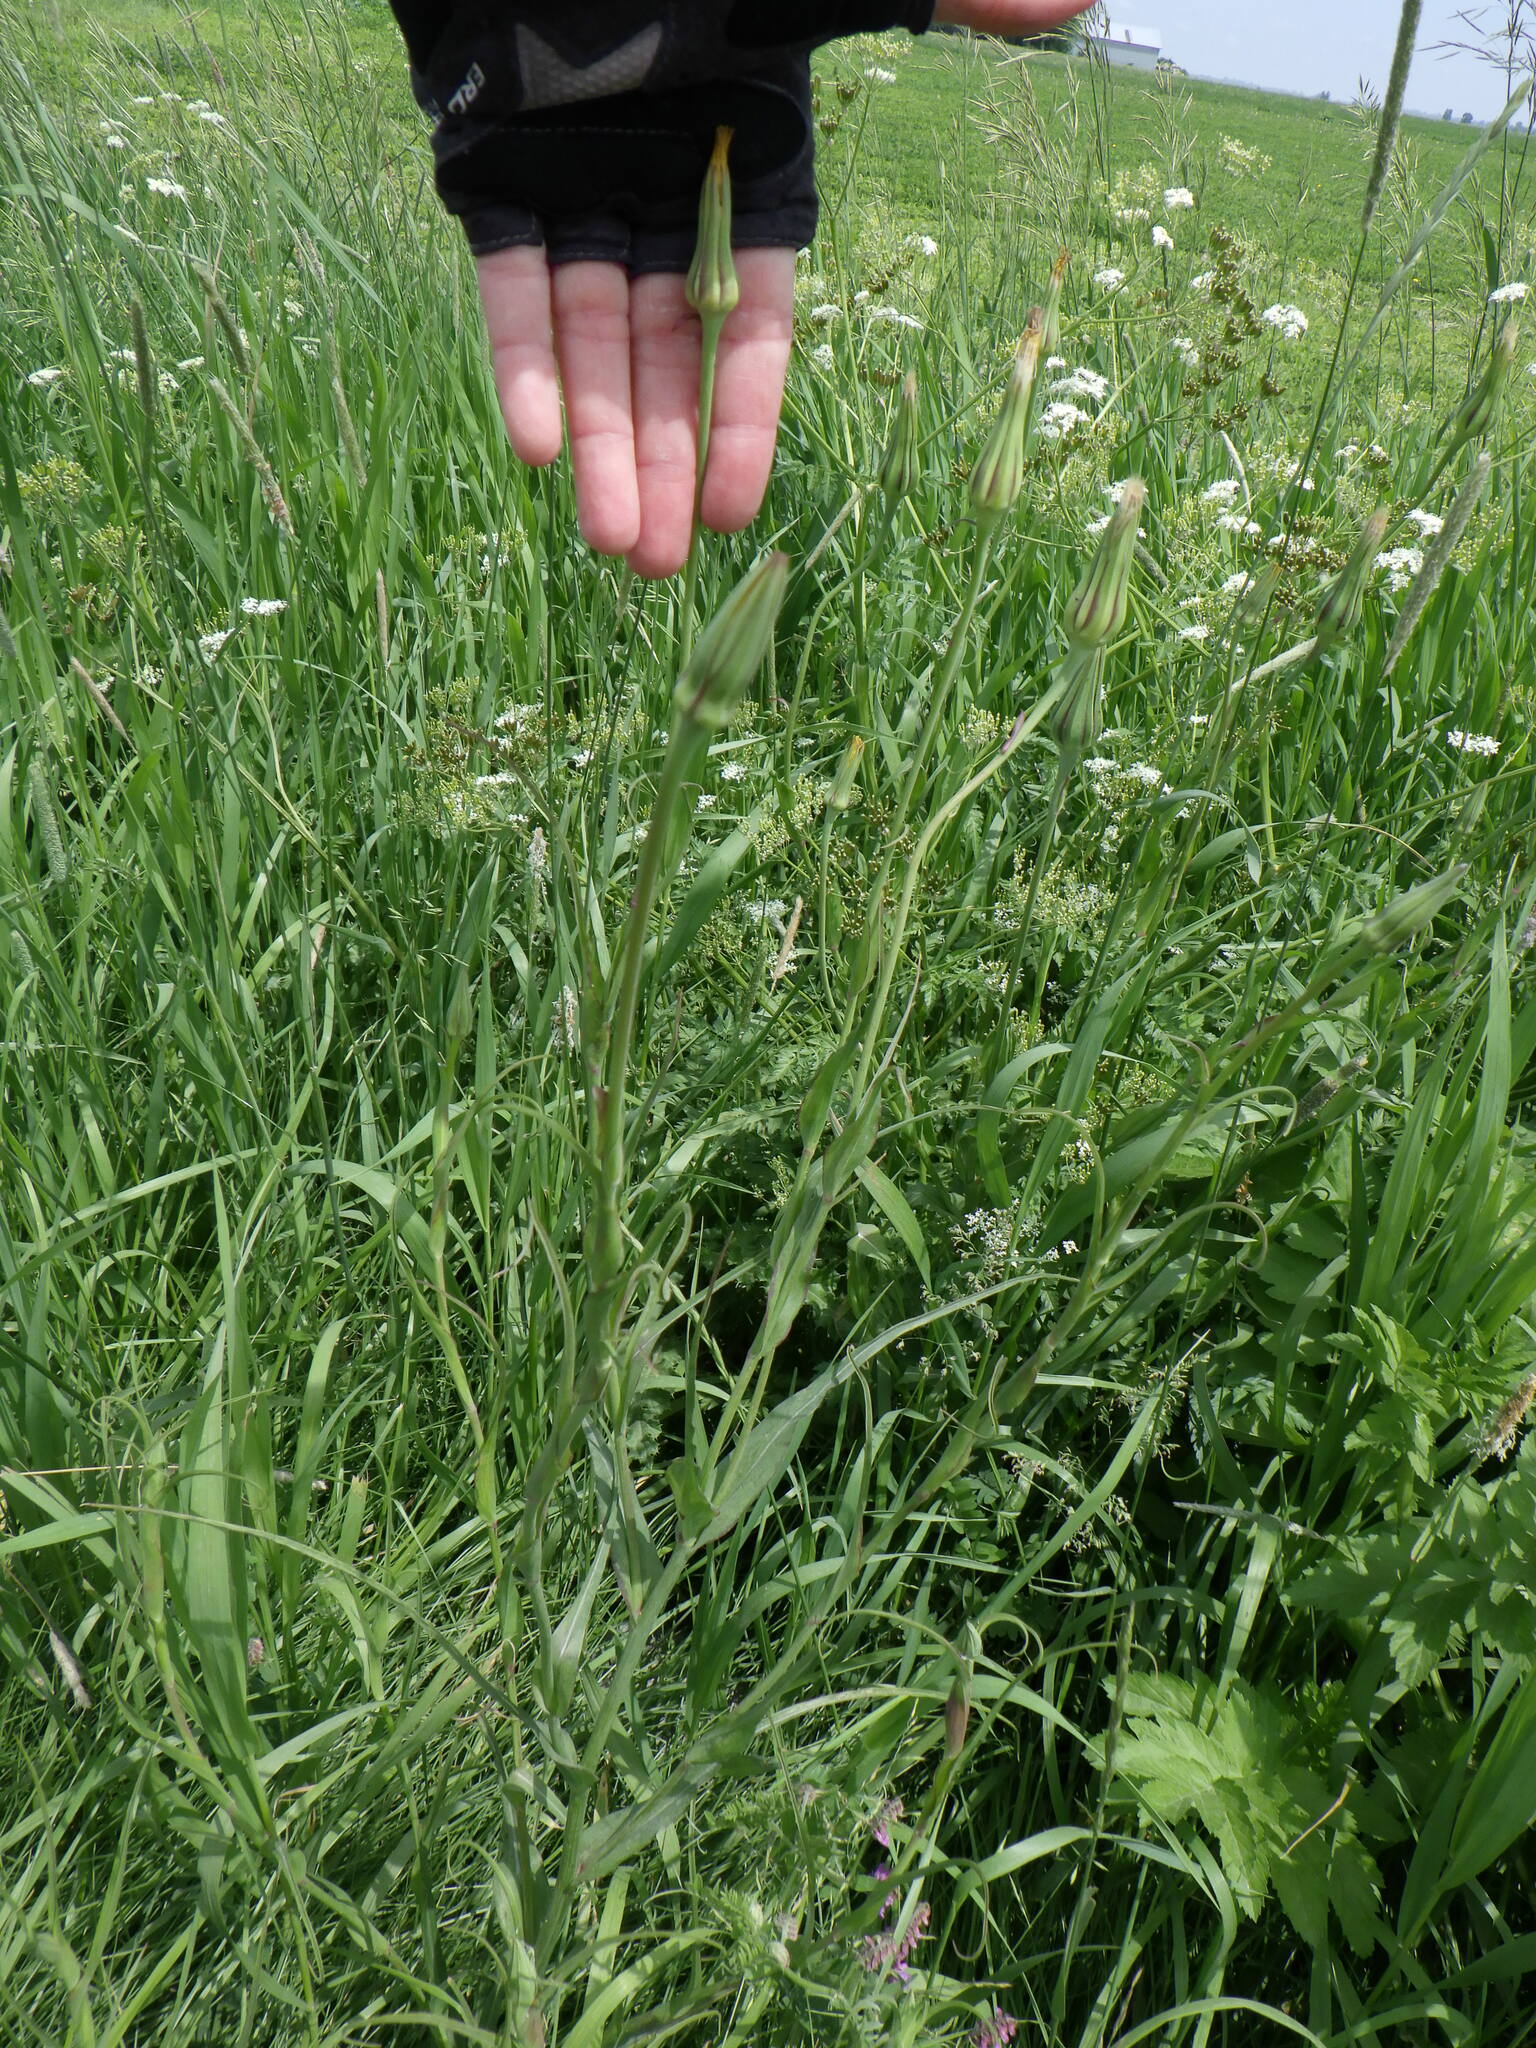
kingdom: Plantae
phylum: Tracheophyta
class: Magnoliopsida
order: Asterales
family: Asteraceae
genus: Tragopogon
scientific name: Tragopogon pratensis
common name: Goat's-beard
